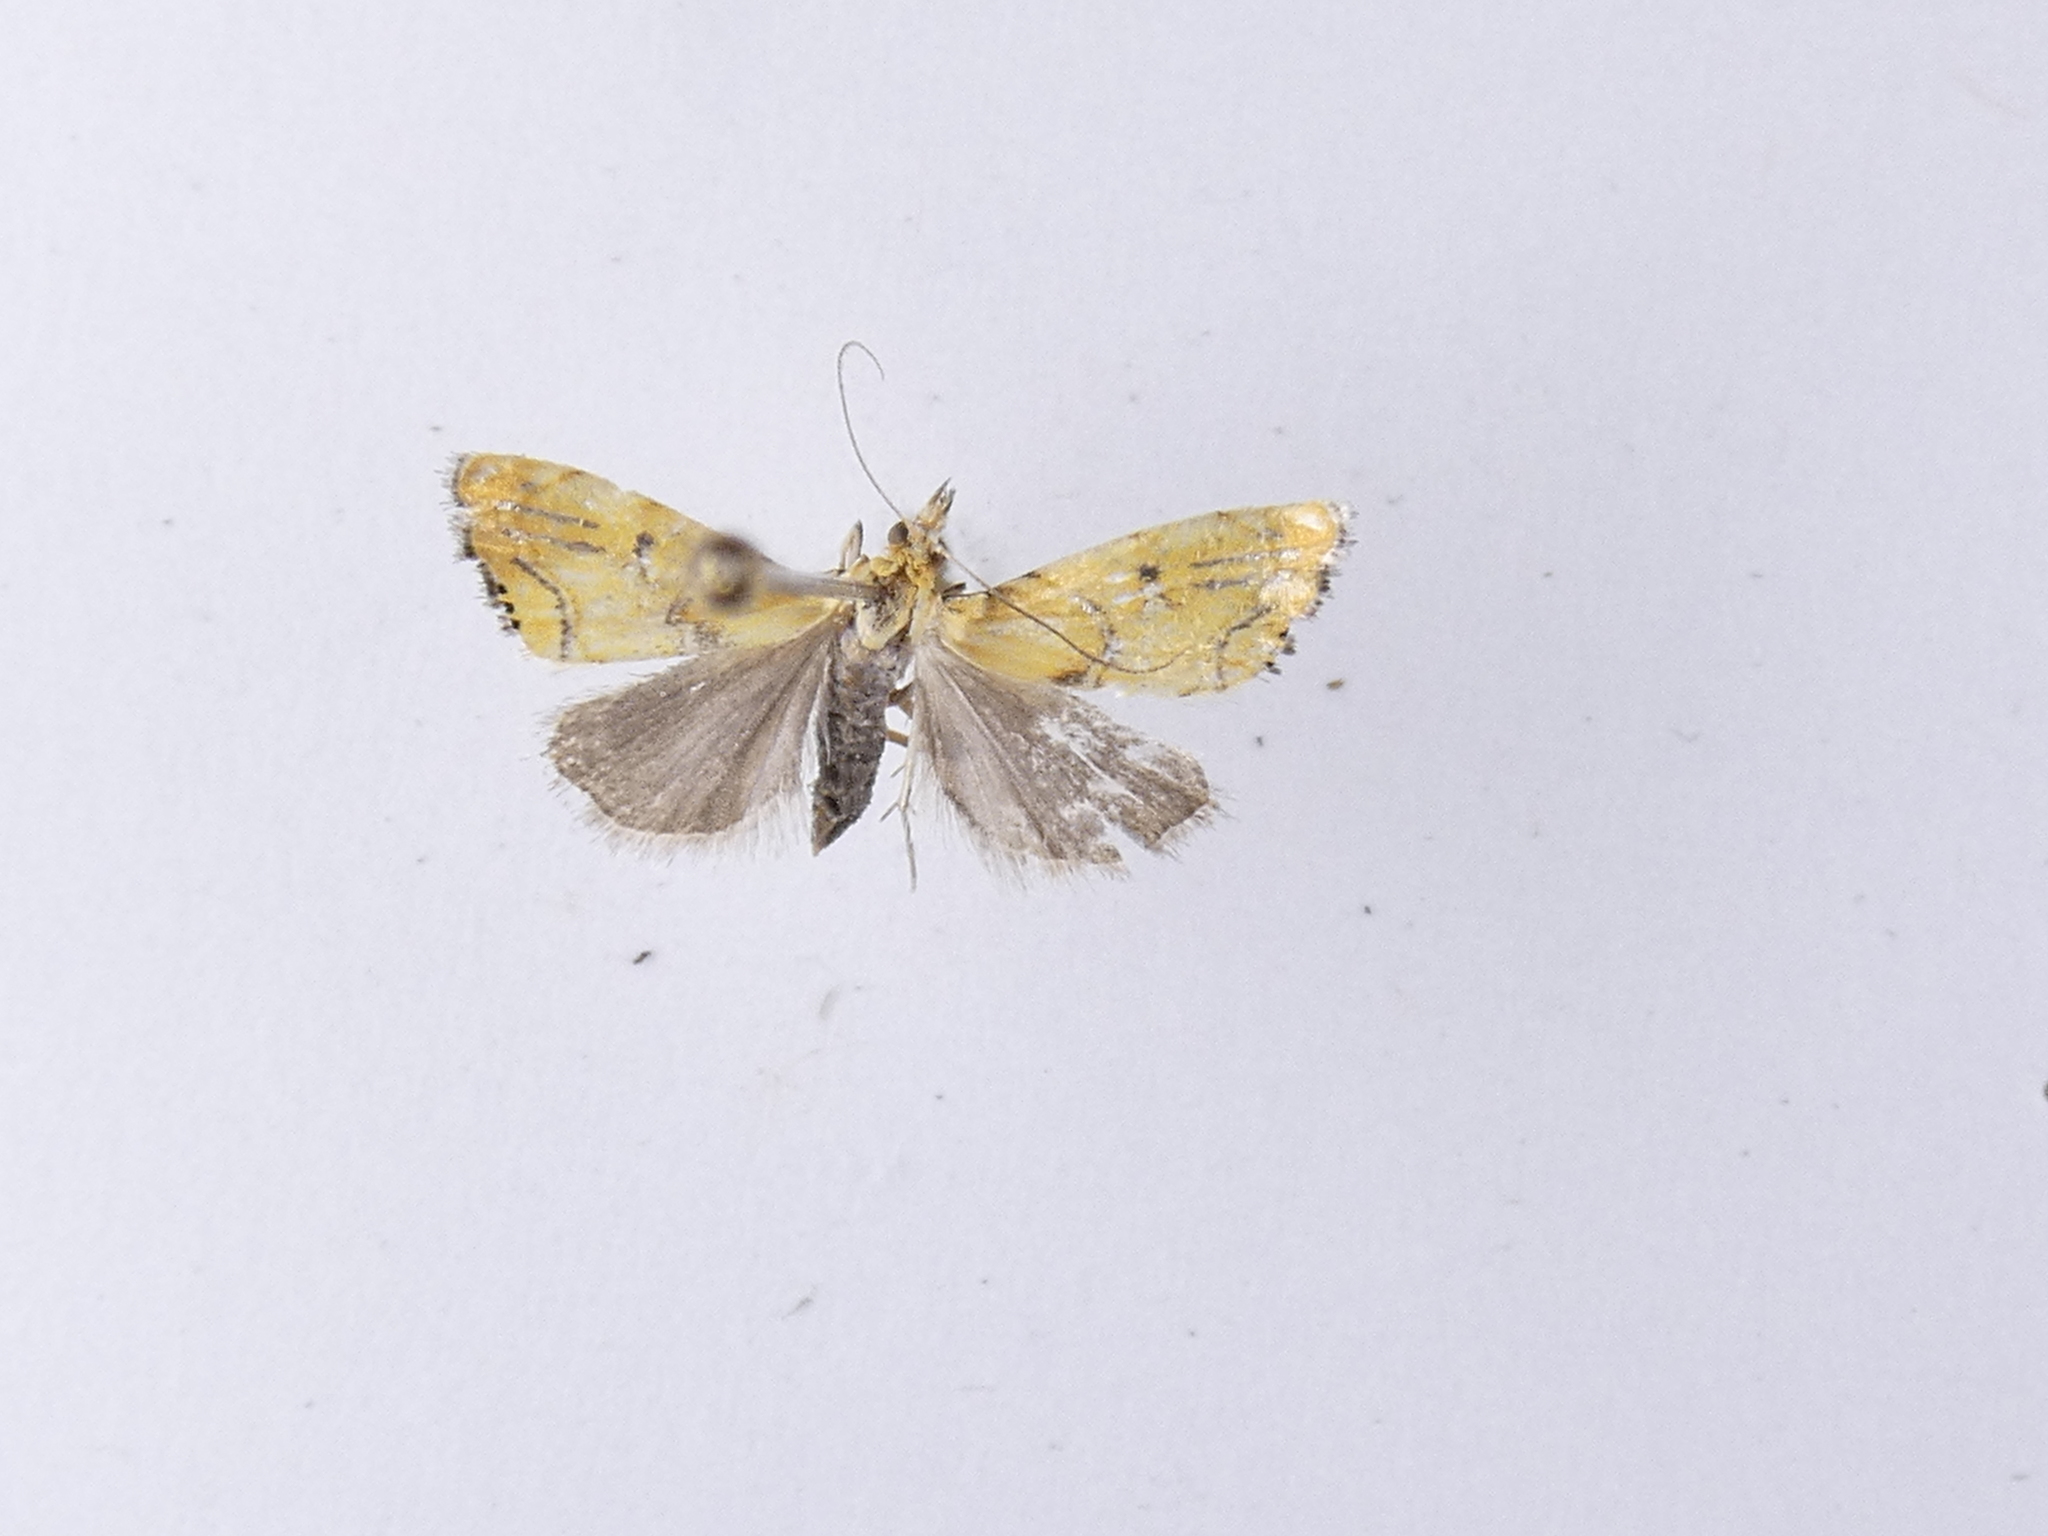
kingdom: Animalia
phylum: Arthropoda
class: Insecta
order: Lepidoptera
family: Crambidae
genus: Glaucocharis
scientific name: Glaucocharis auriscriptella
